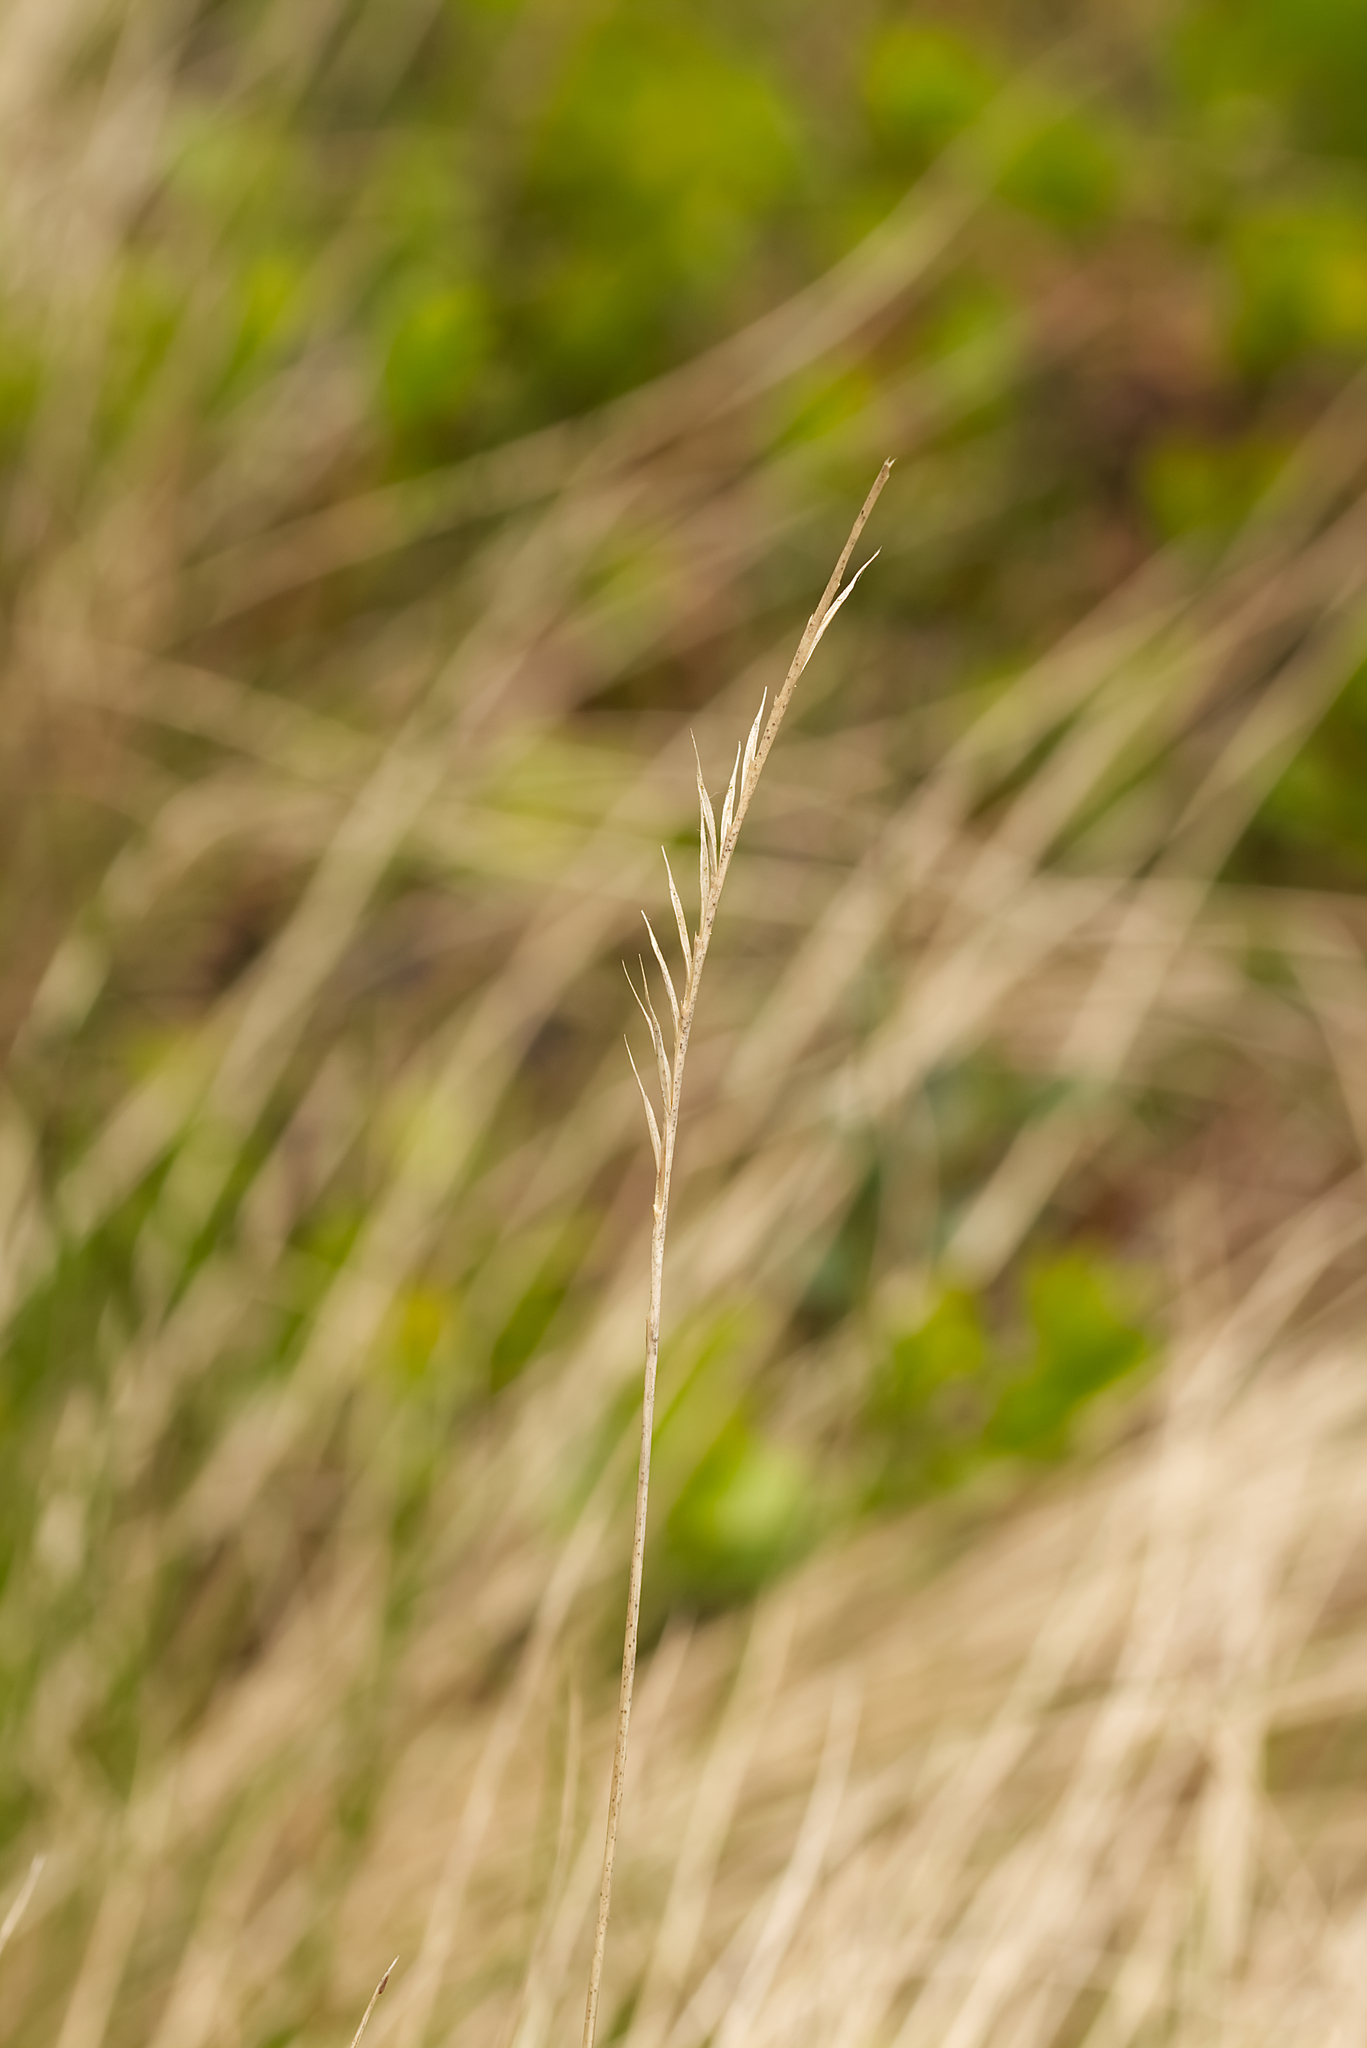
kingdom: Plantae
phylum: Tracheophyta
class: Liliopsida
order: Poales
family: Poaceae
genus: Nardus
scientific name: Nardus stricta
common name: Mat-grass
